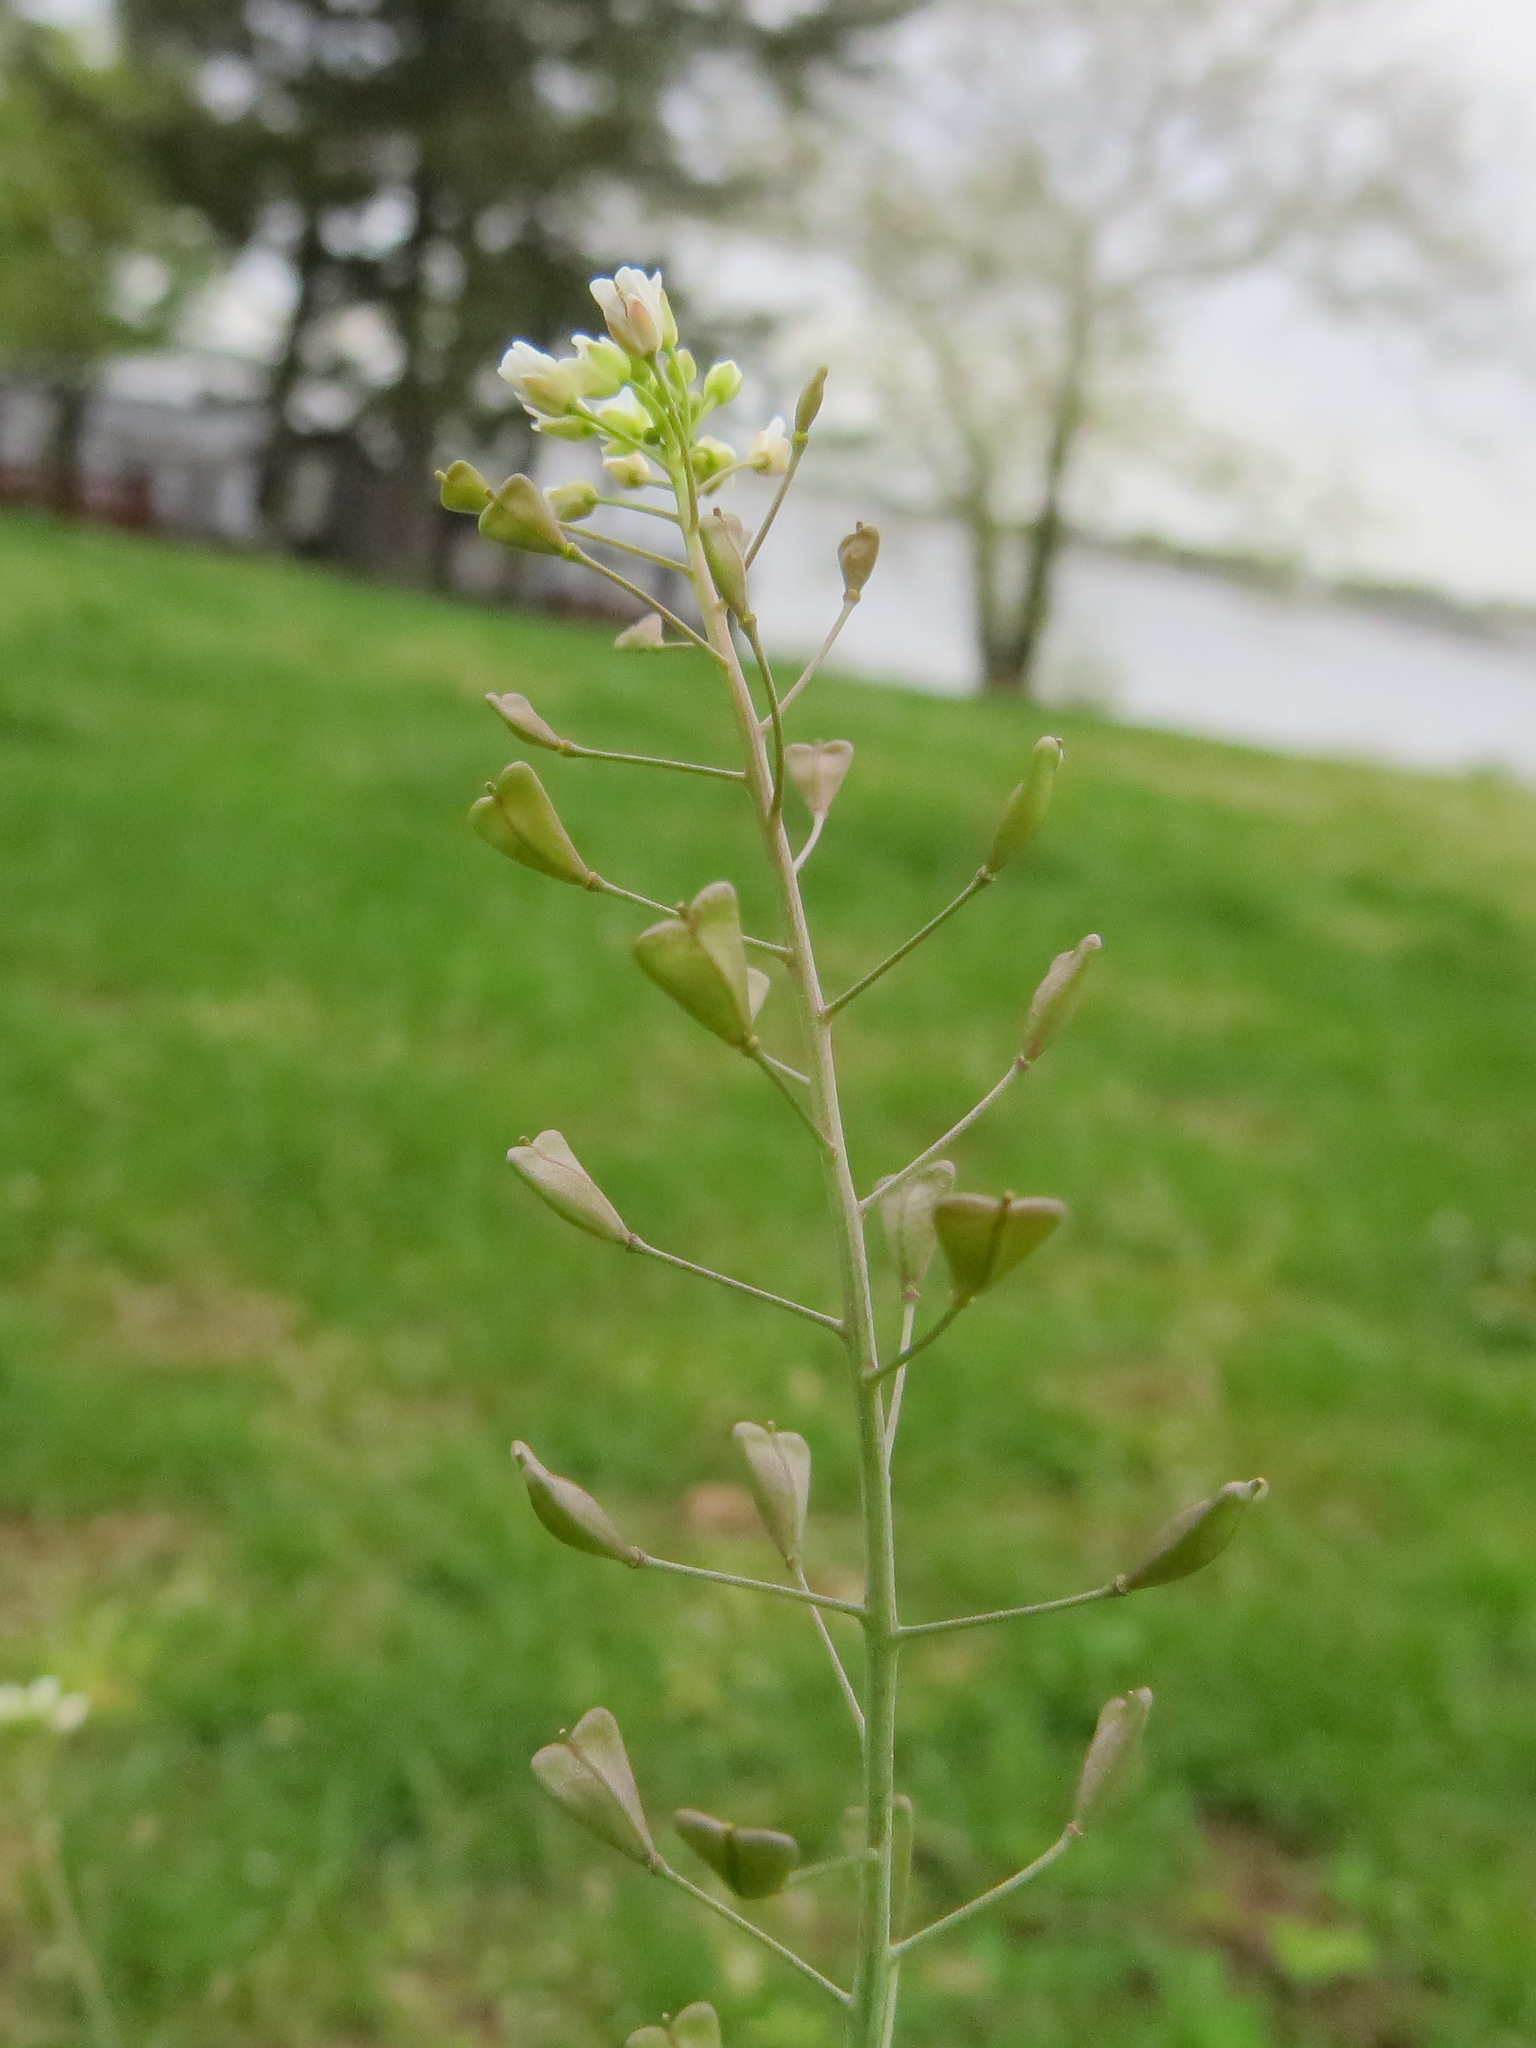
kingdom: Plantae
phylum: Tracheophyta
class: Magnoliopsida
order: Brassicales
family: Brassicaceae
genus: Capsella
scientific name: Capsella bursa-pastoris
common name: Shepherd's purse
